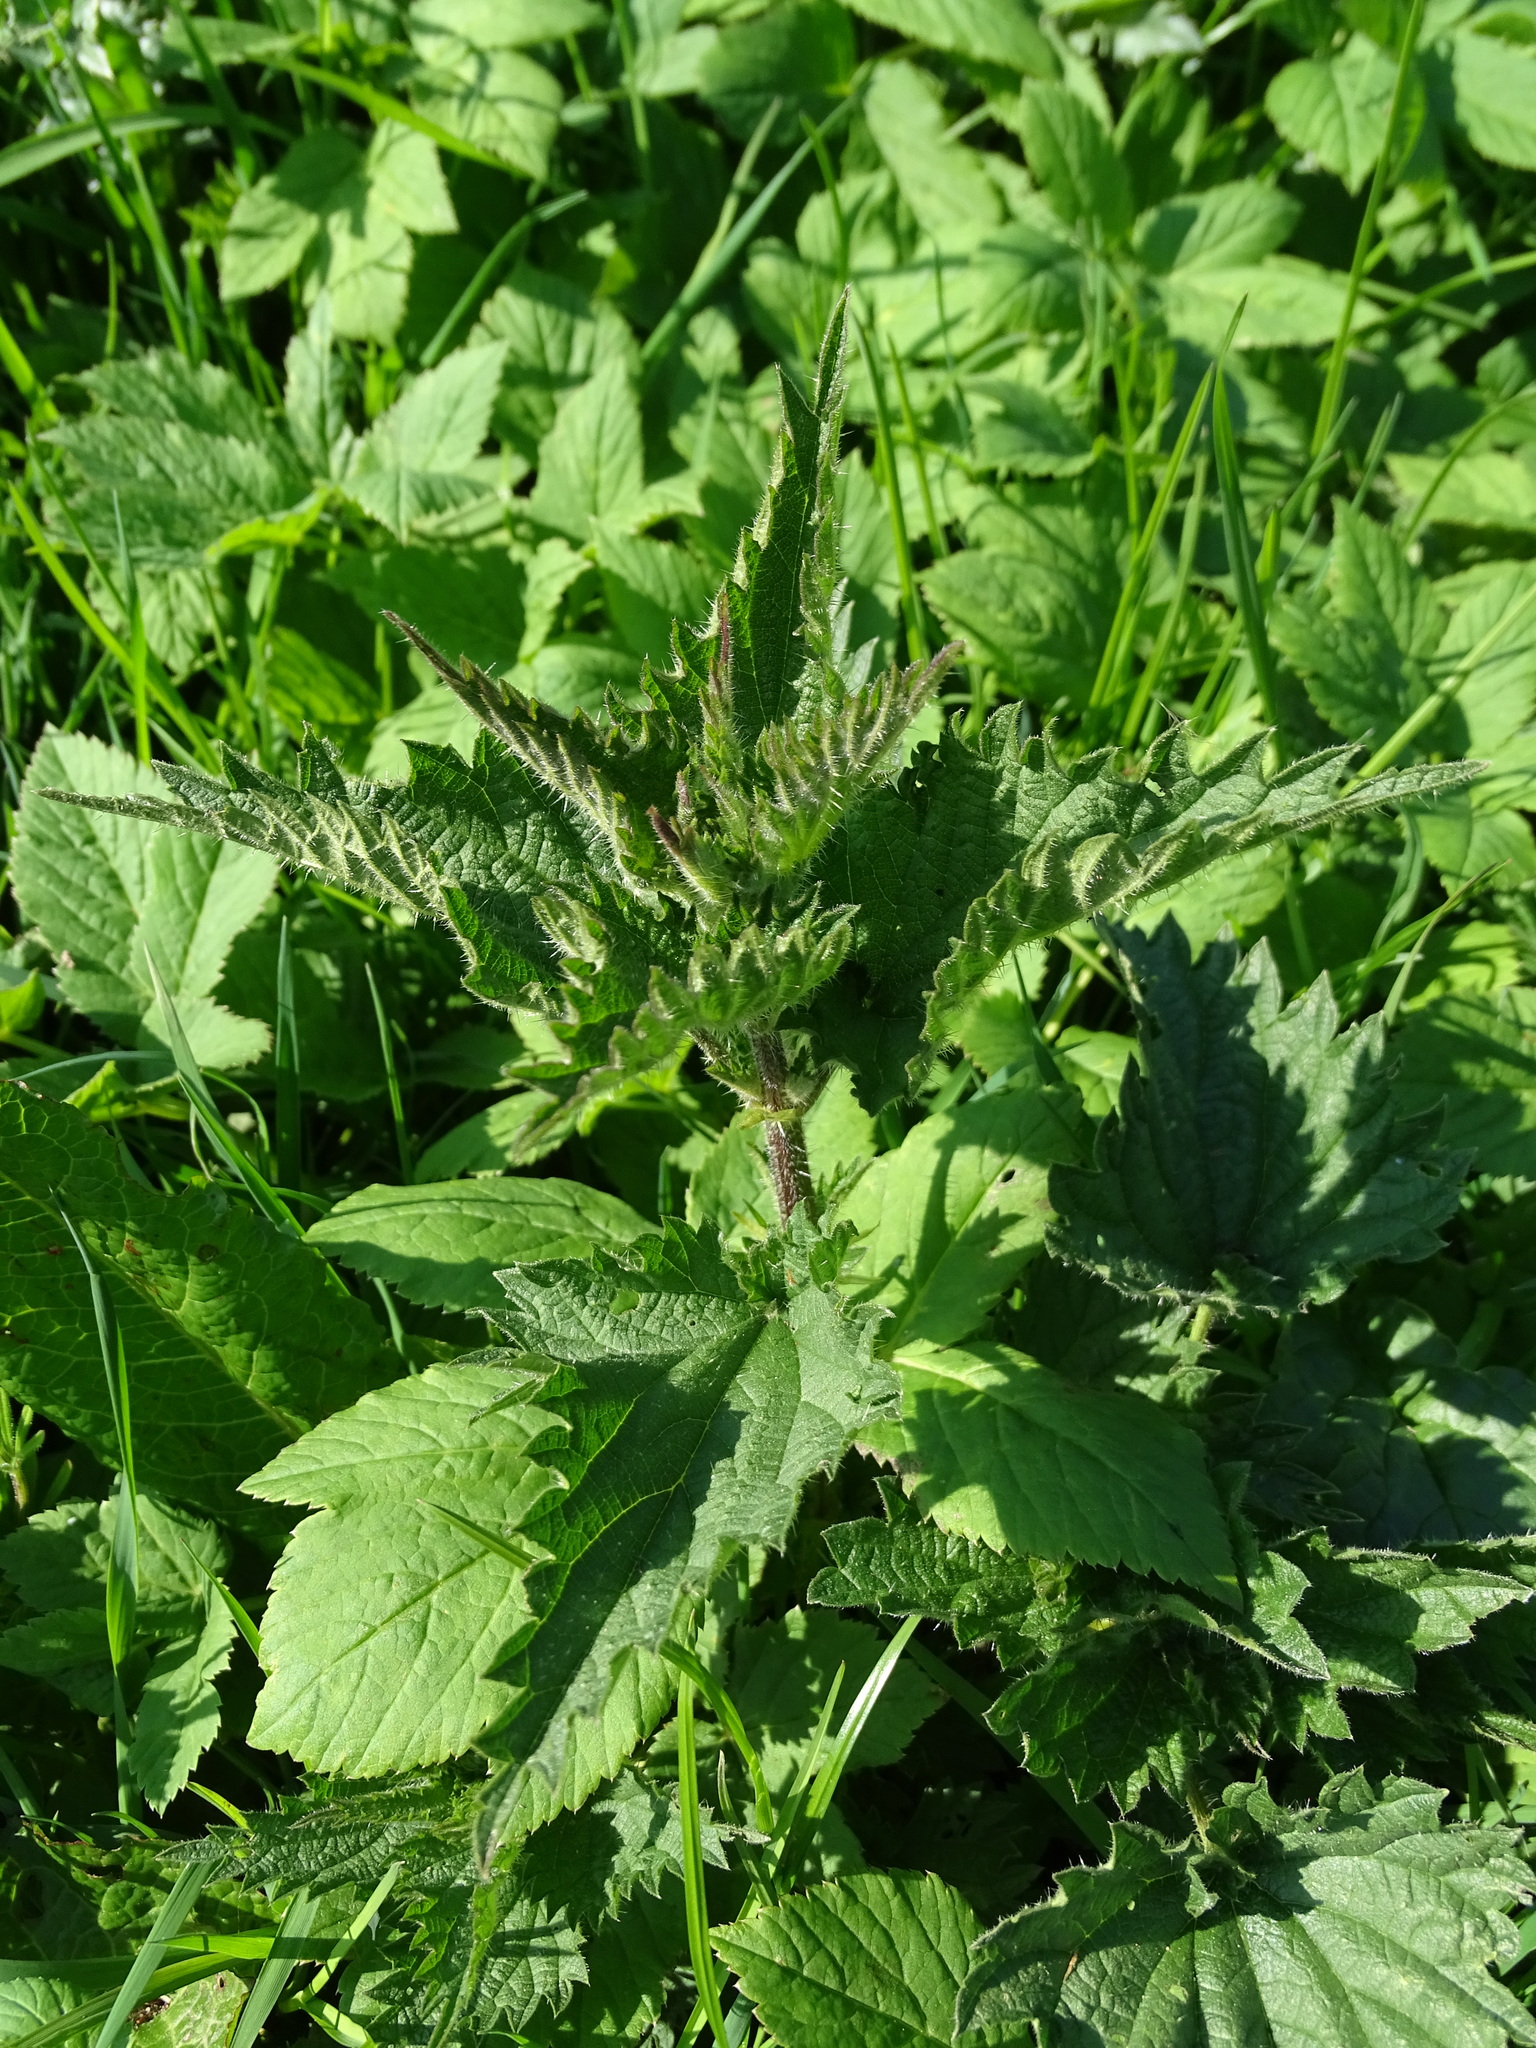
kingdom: Plantae
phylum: Tracheophyta
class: Magnoliopsida
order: Rosales
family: Urticaceae
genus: Urtica
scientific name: Urtica dioica
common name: Common nettle
